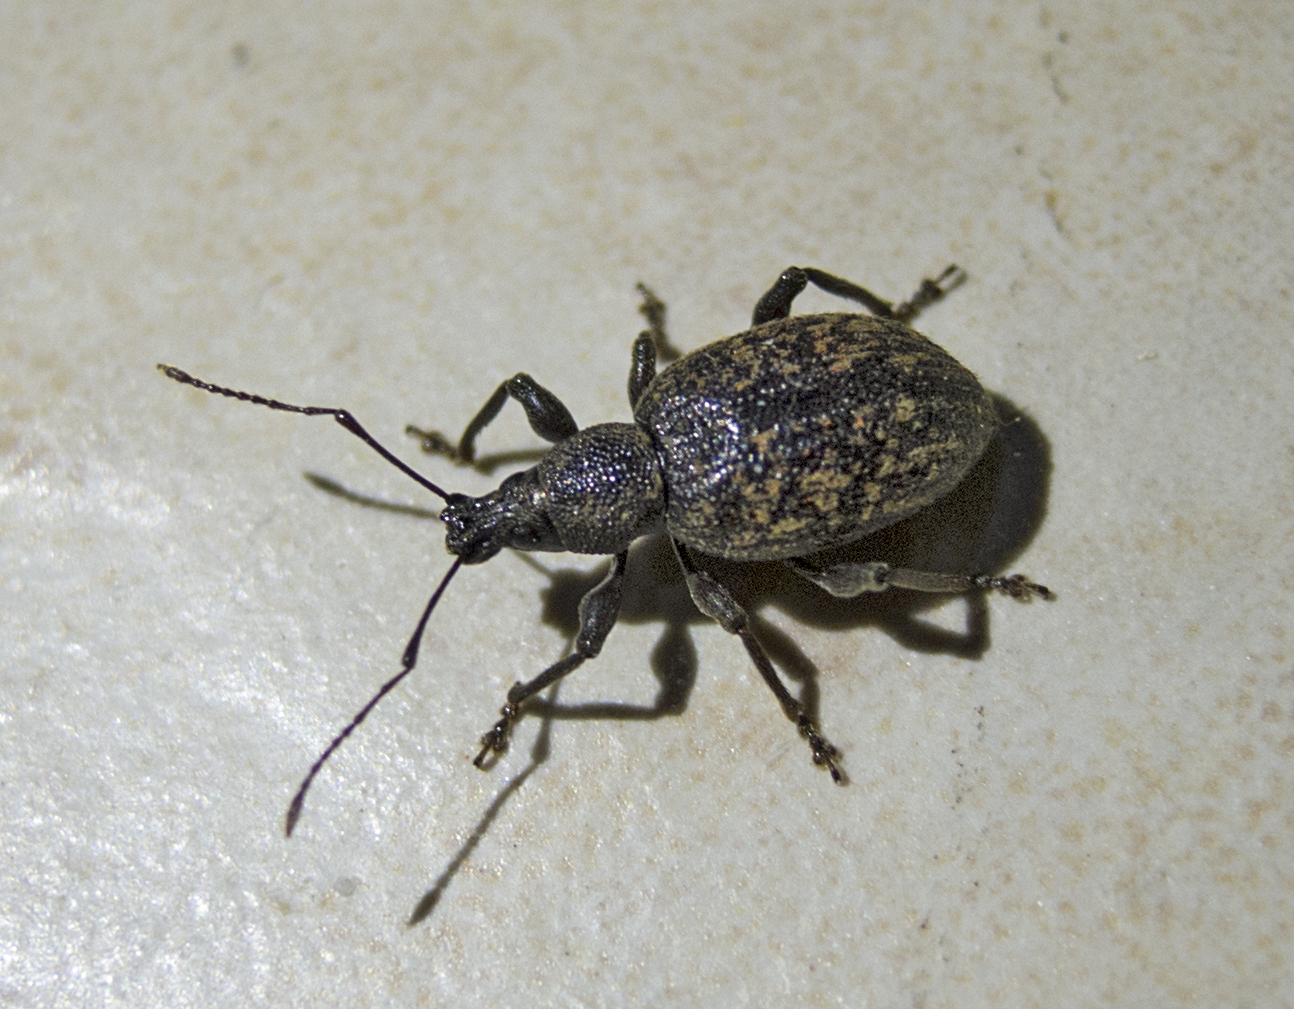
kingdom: Animalia
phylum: Arthropoda
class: Insecta
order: Coleoptera
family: Curculionidae
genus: Otiorhynchus
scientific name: Otiorhynchus aurifer
